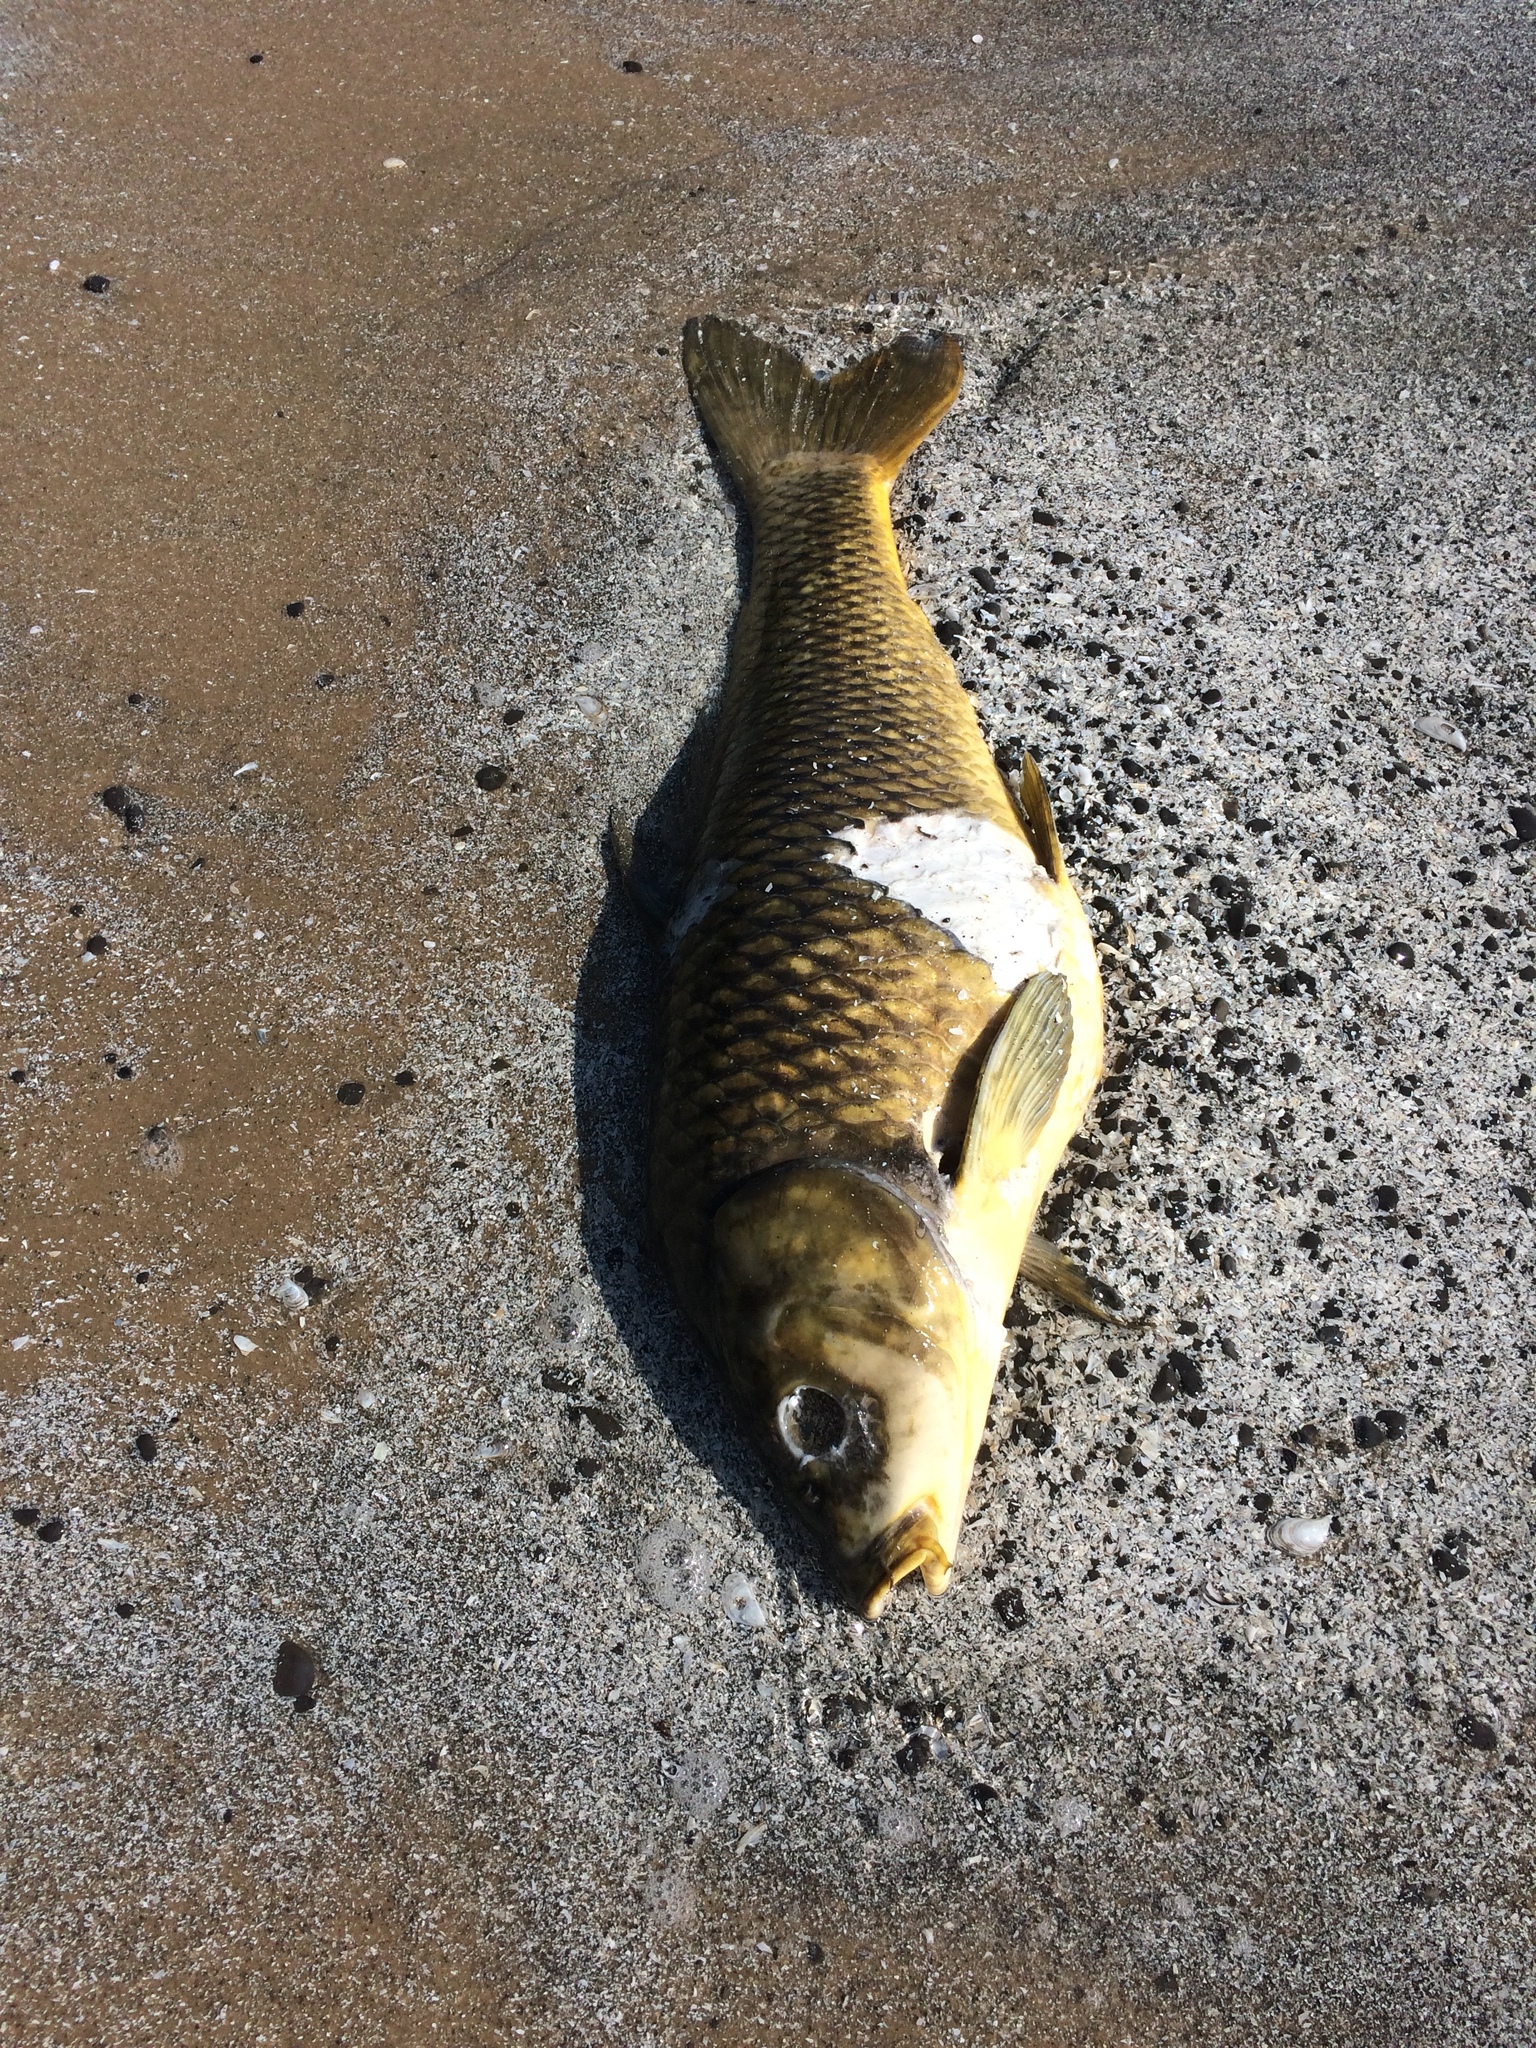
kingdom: Animalia
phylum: Chordata
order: Cypriniformes
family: Cyprinidae
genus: Cyprinus
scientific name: Cyprinus carpio
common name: Common carp
